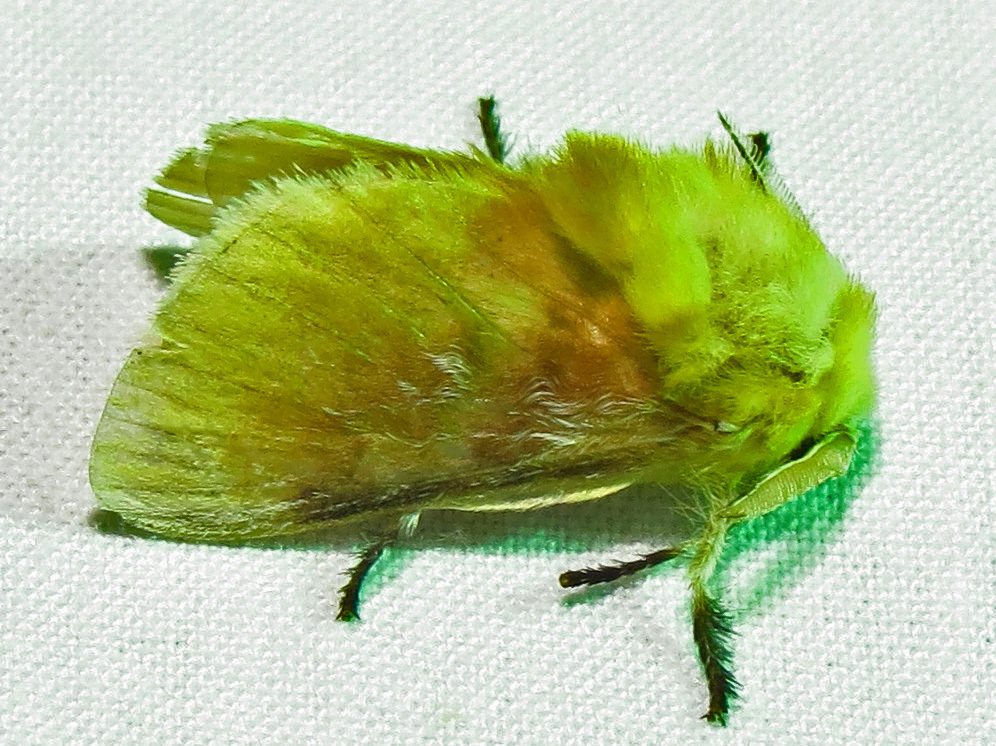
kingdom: Animalia
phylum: Arthropoda
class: Insecta
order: Lepidoptera
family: Megalopygidae
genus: Megalopyge
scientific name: Megalopyge opercularis
